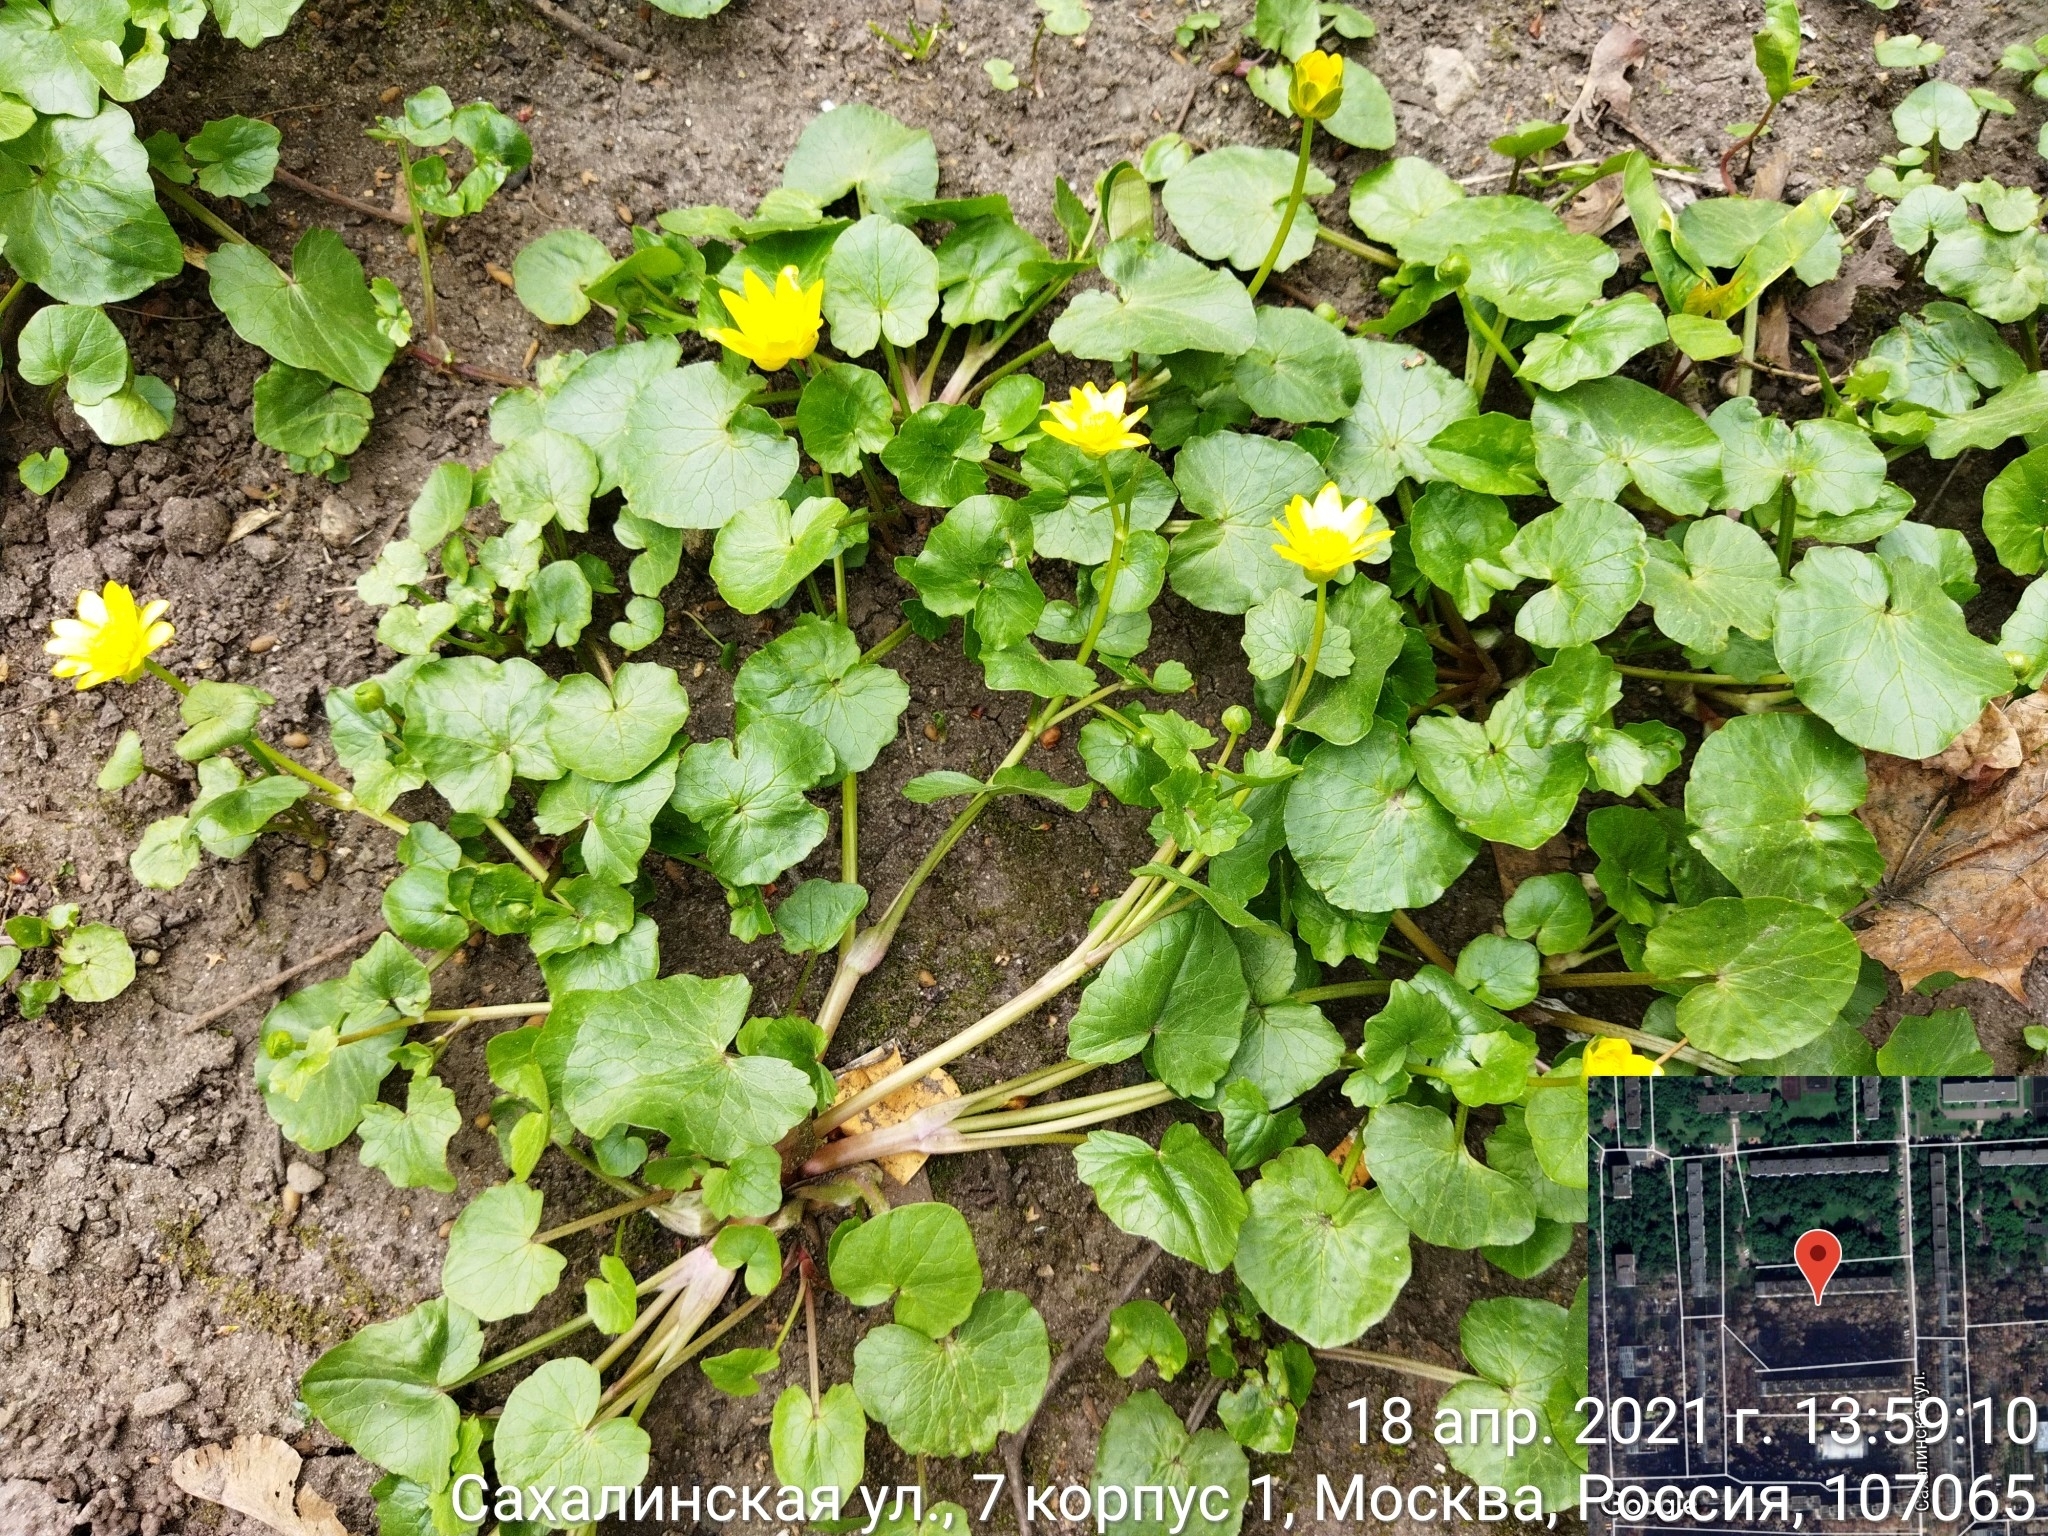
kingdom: Plantae
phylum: Tracheophyta
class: Magnoliopsida
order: Ranunculales
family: Ranunculaceae
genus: Ficaria
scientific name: Ficaria verna
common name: Lesser celandine
